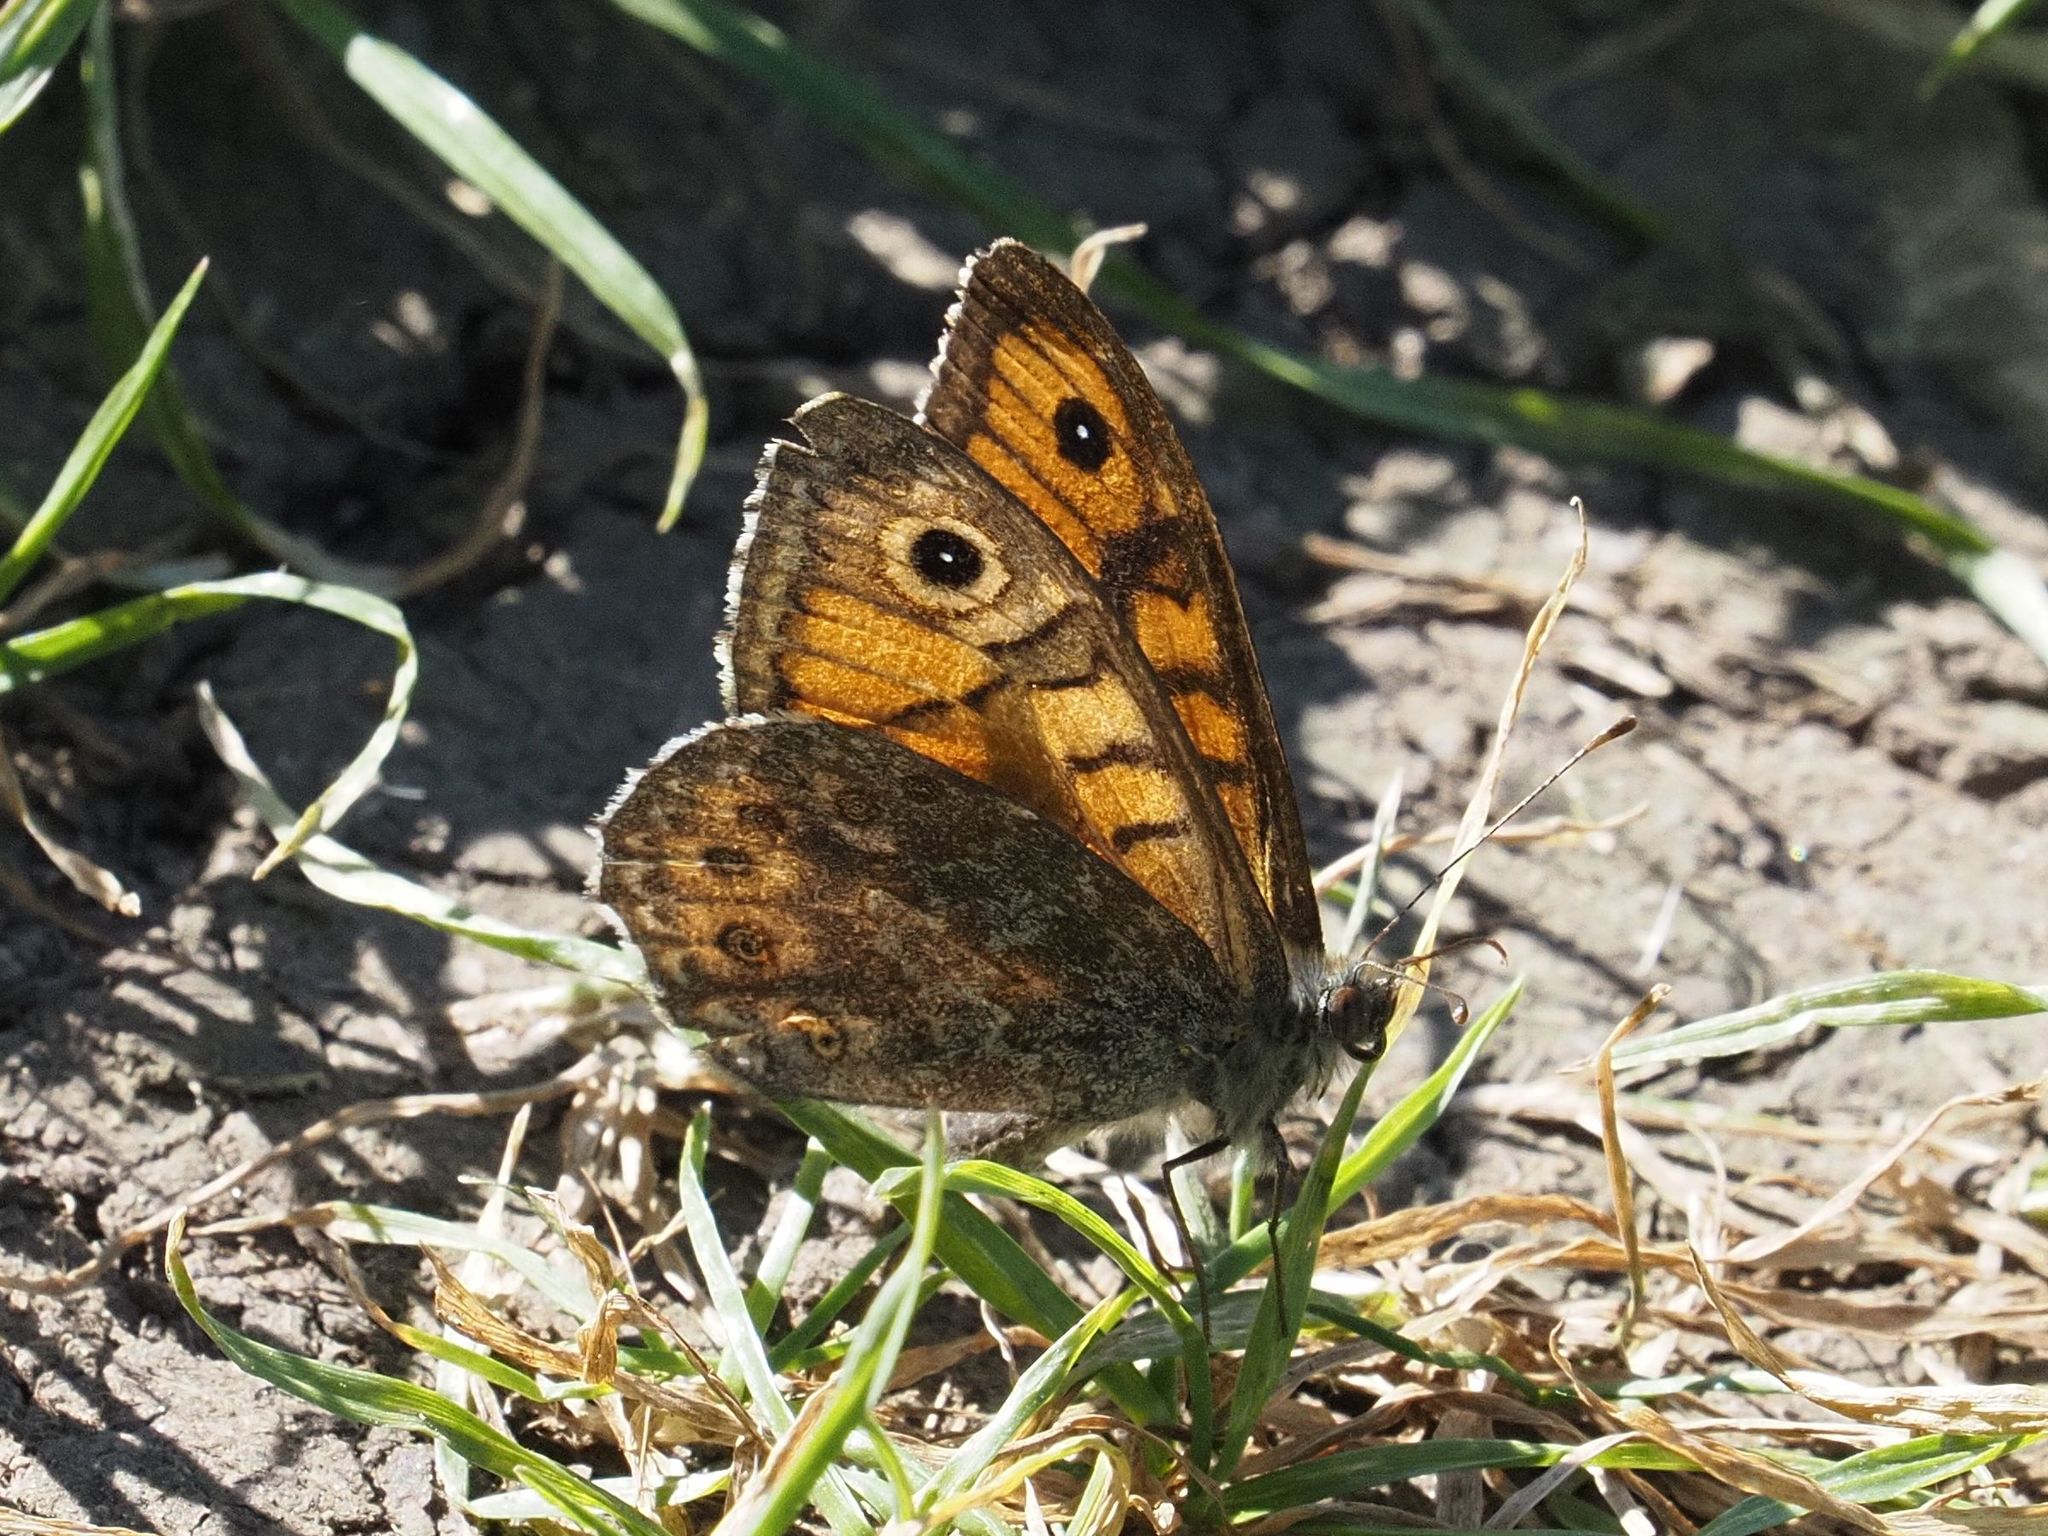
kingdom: Animalia
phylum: Arthropoda
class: Insecta
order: Lepidoptera
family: Nymphalidae
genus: Pararge
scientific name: Pararge Lasiommata megera
